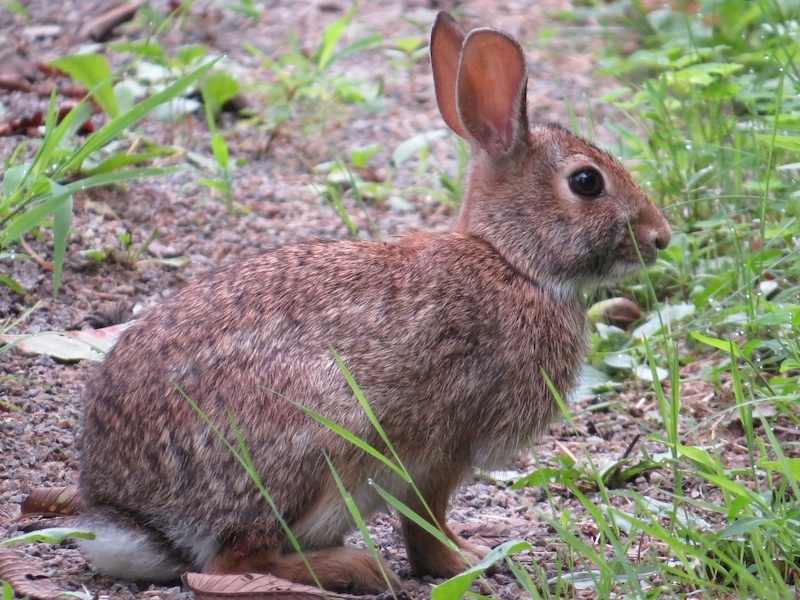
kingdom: Animalia
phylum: Chordata
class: Mammalia
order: Lagomorpha
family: Leporidae
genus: Sylvilagus
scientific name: Sylvilagus floridanus
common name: Eastern cottontail
